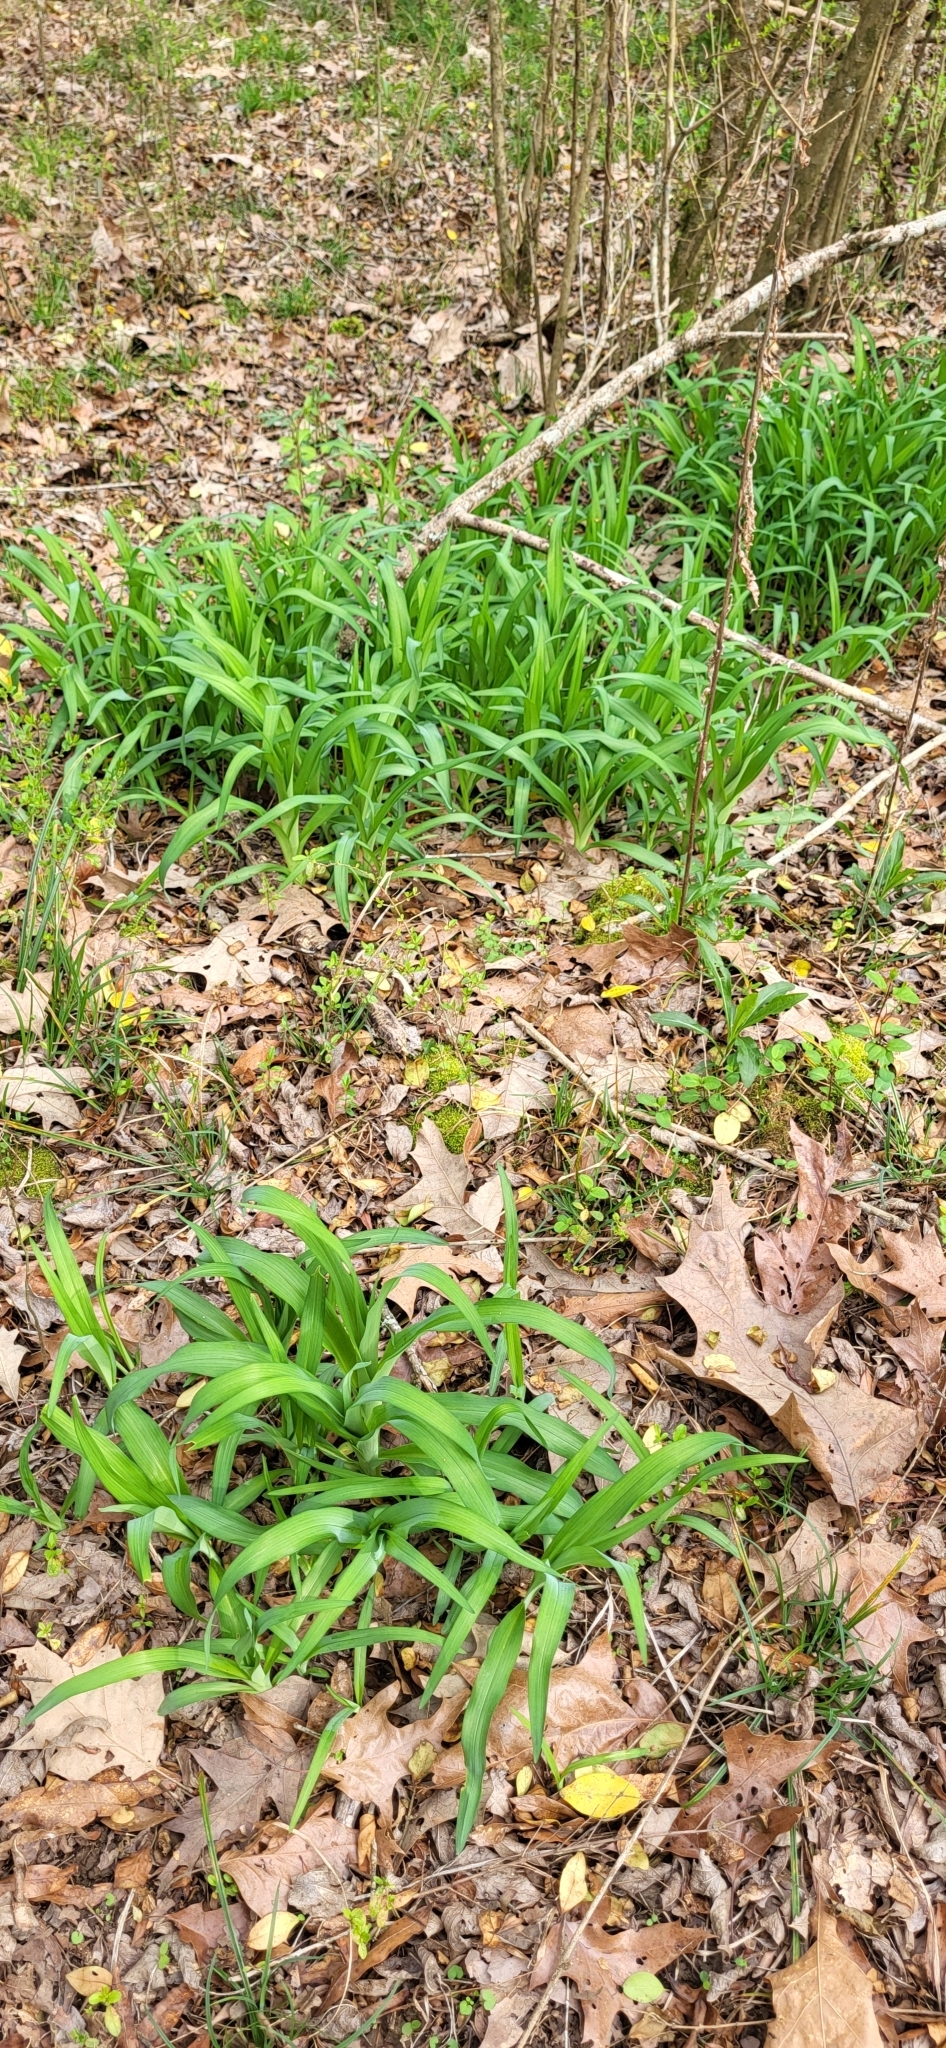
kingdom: Plantae
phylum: Tracheophyta
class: Liliopsida
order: Asparagales
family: Asphodelaceae
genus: Hemerocallis
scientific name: Hemerocallis fulva
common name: Orange day-lily
